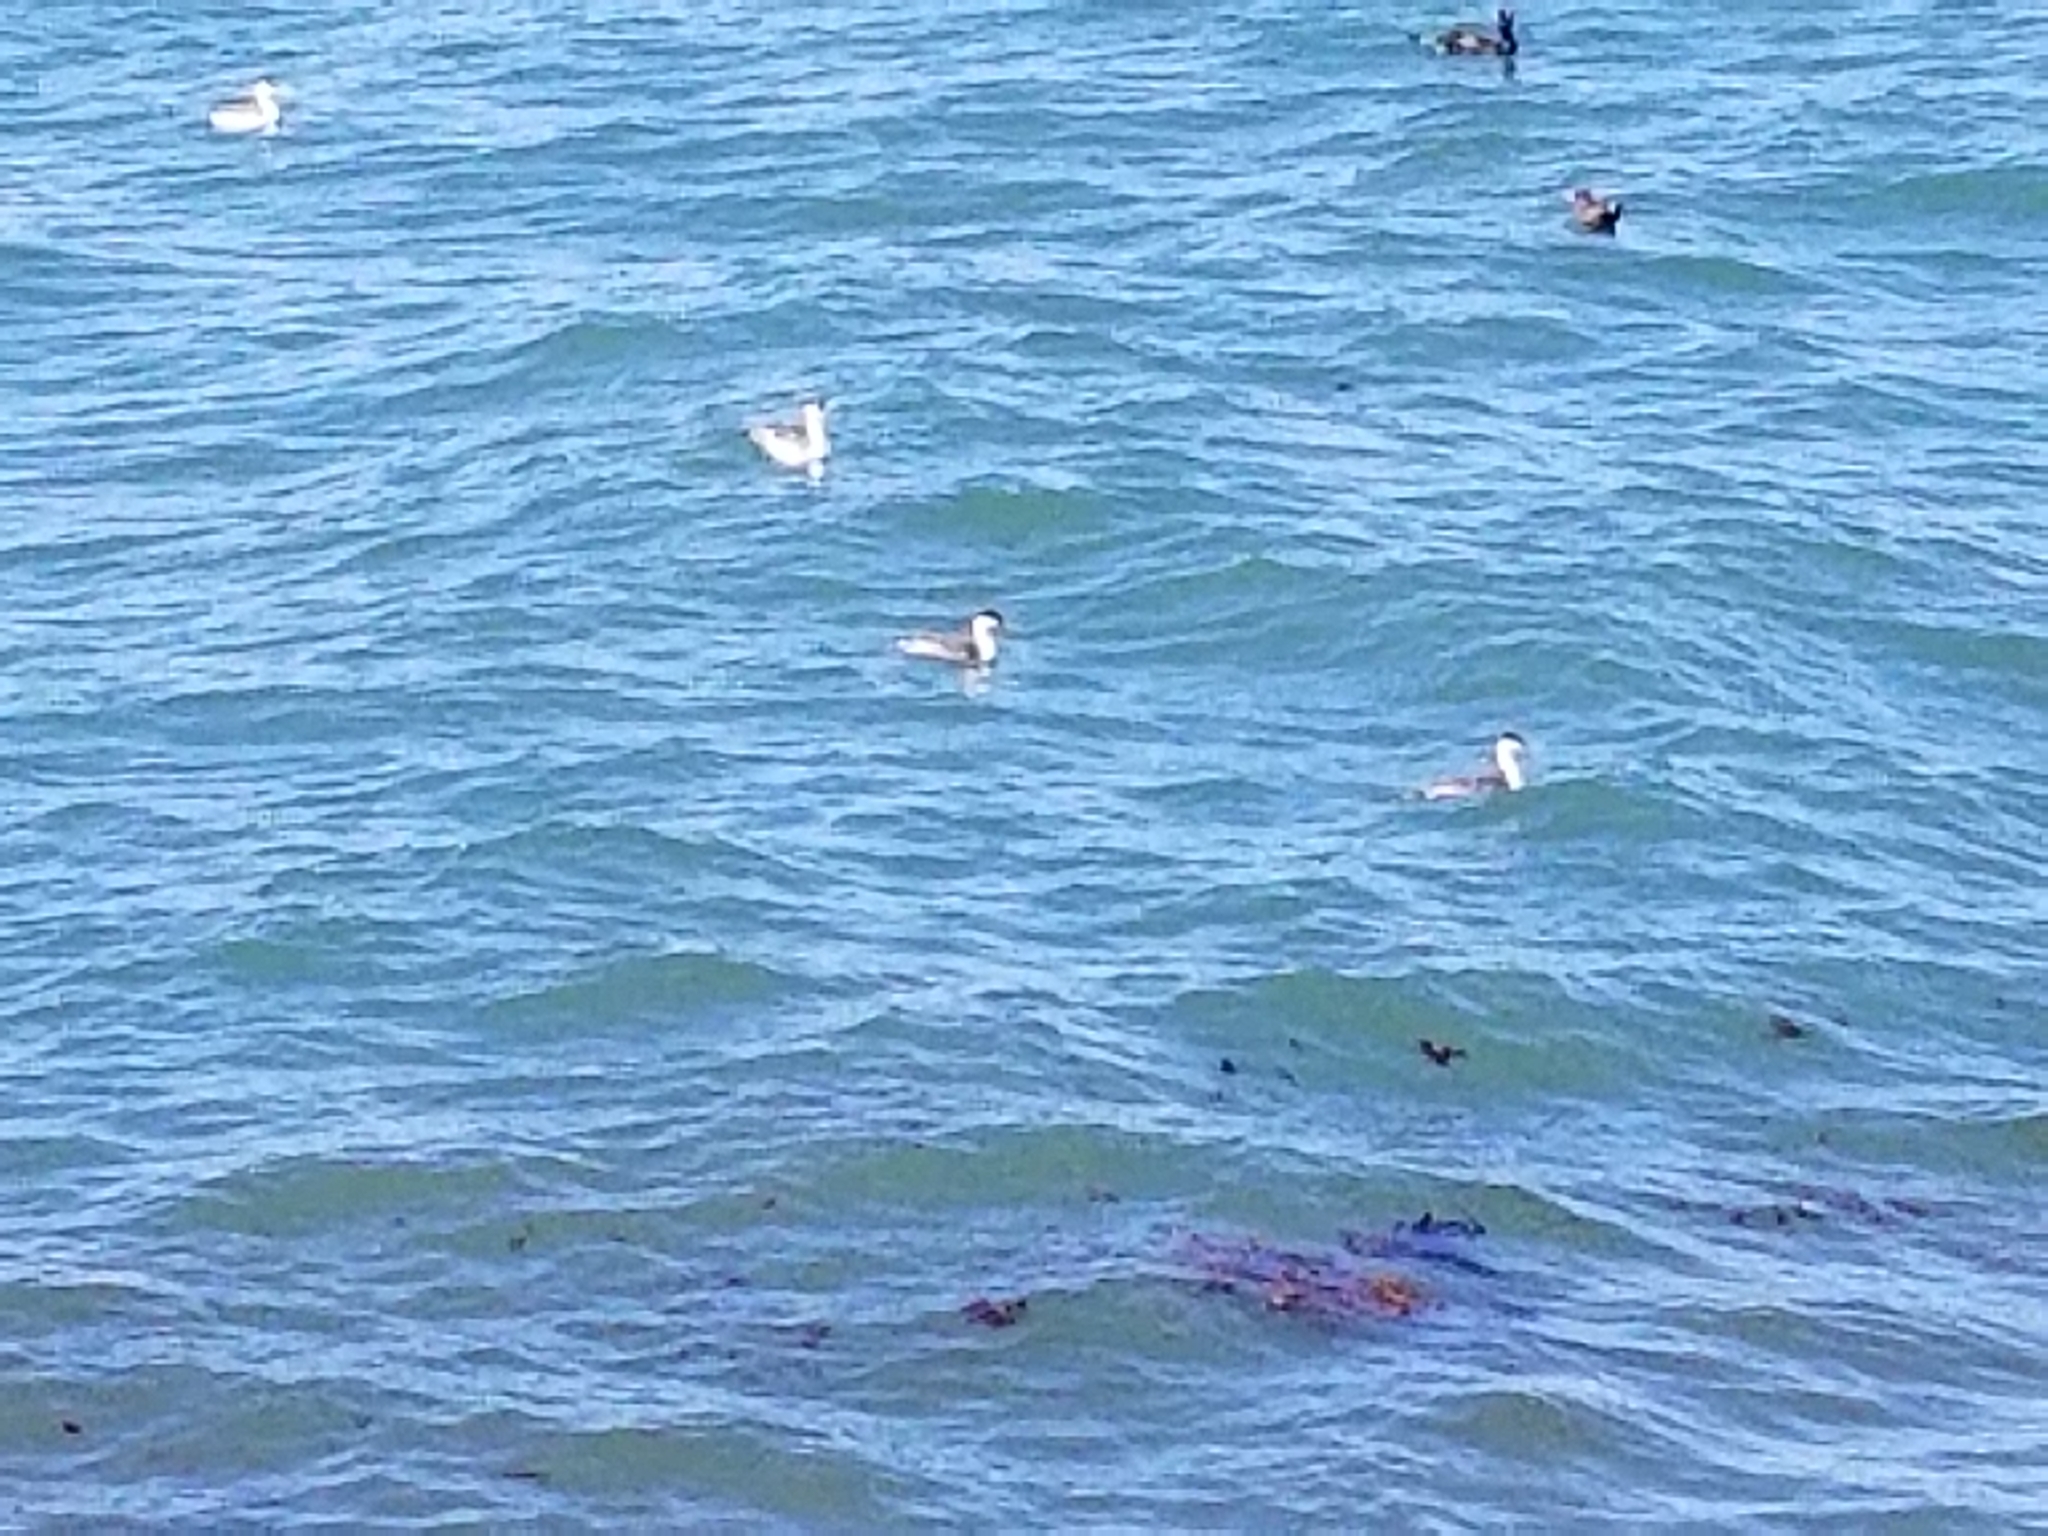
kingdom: Animalia
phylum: Chordata
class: Aves
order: Podicipediformes
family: Podicipedidae
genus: Aechmophorus
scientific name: Aechmophorus occidentalis
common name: Western grebe
